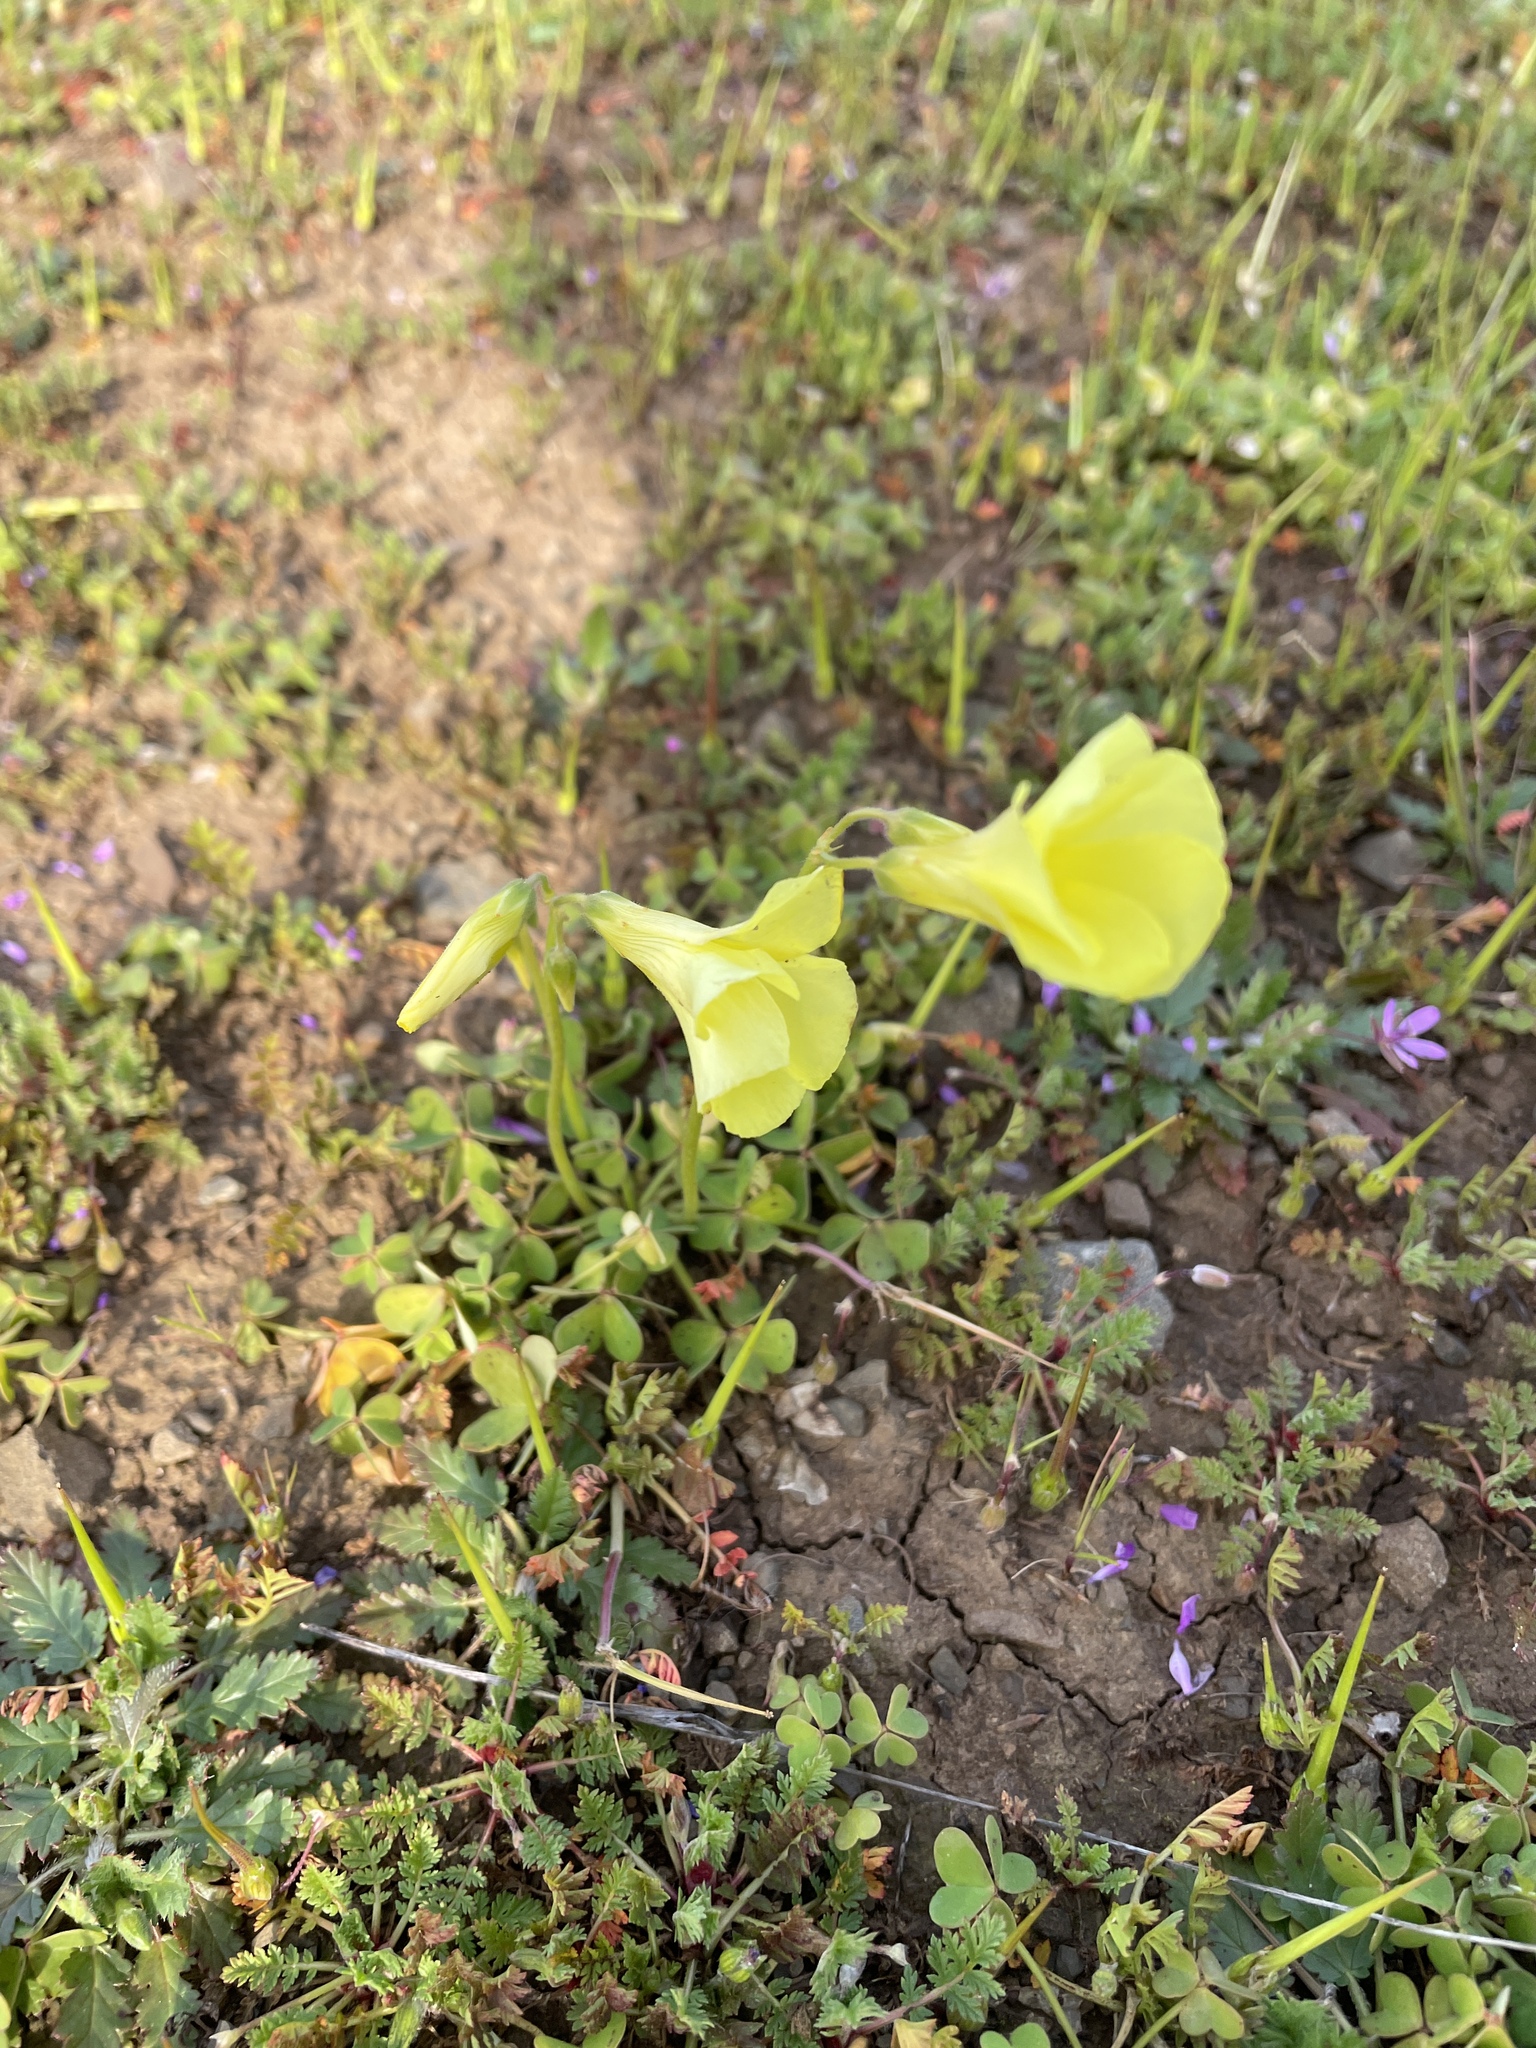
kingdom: Plantae
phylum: Tracheophyta
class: Magnoliopsida
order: Oxalidales
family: Oxalidaceae
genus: Oxalis
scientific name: Oxalis pes-caprae
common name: Bermuda-buttercup
